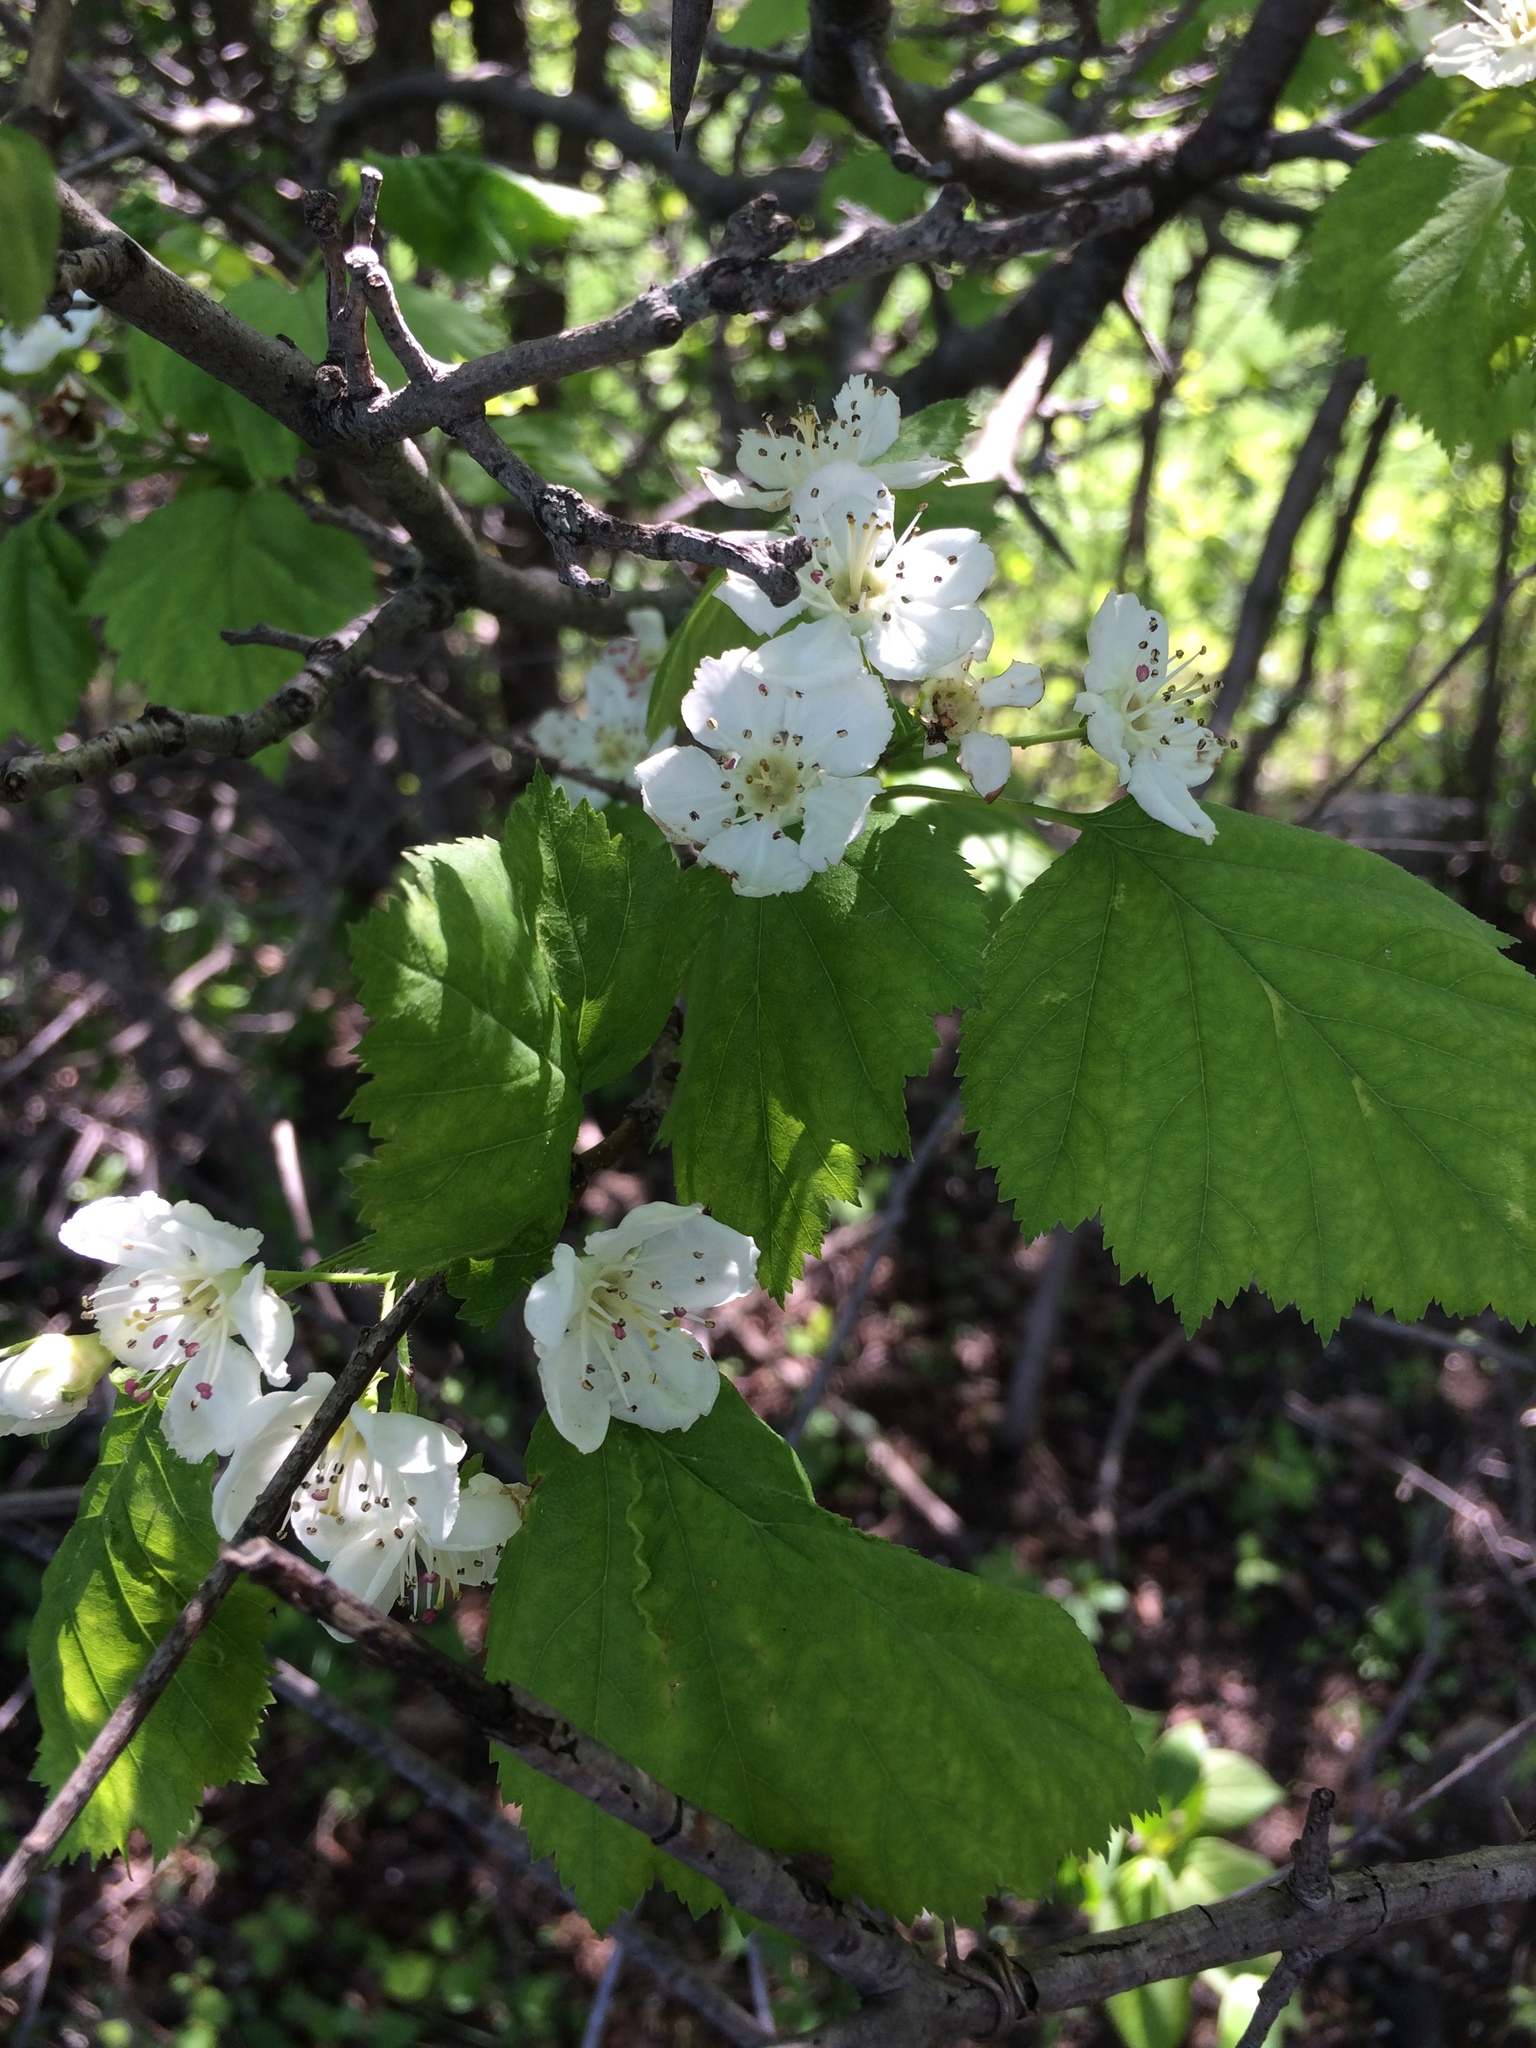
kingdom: Plantae
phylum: Tracheophyta
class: Magnoliopsida
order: Rosales
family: Rosaceae
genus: Crataegus
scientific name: Crataegus schuettei
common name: Schuette's hawthorn
